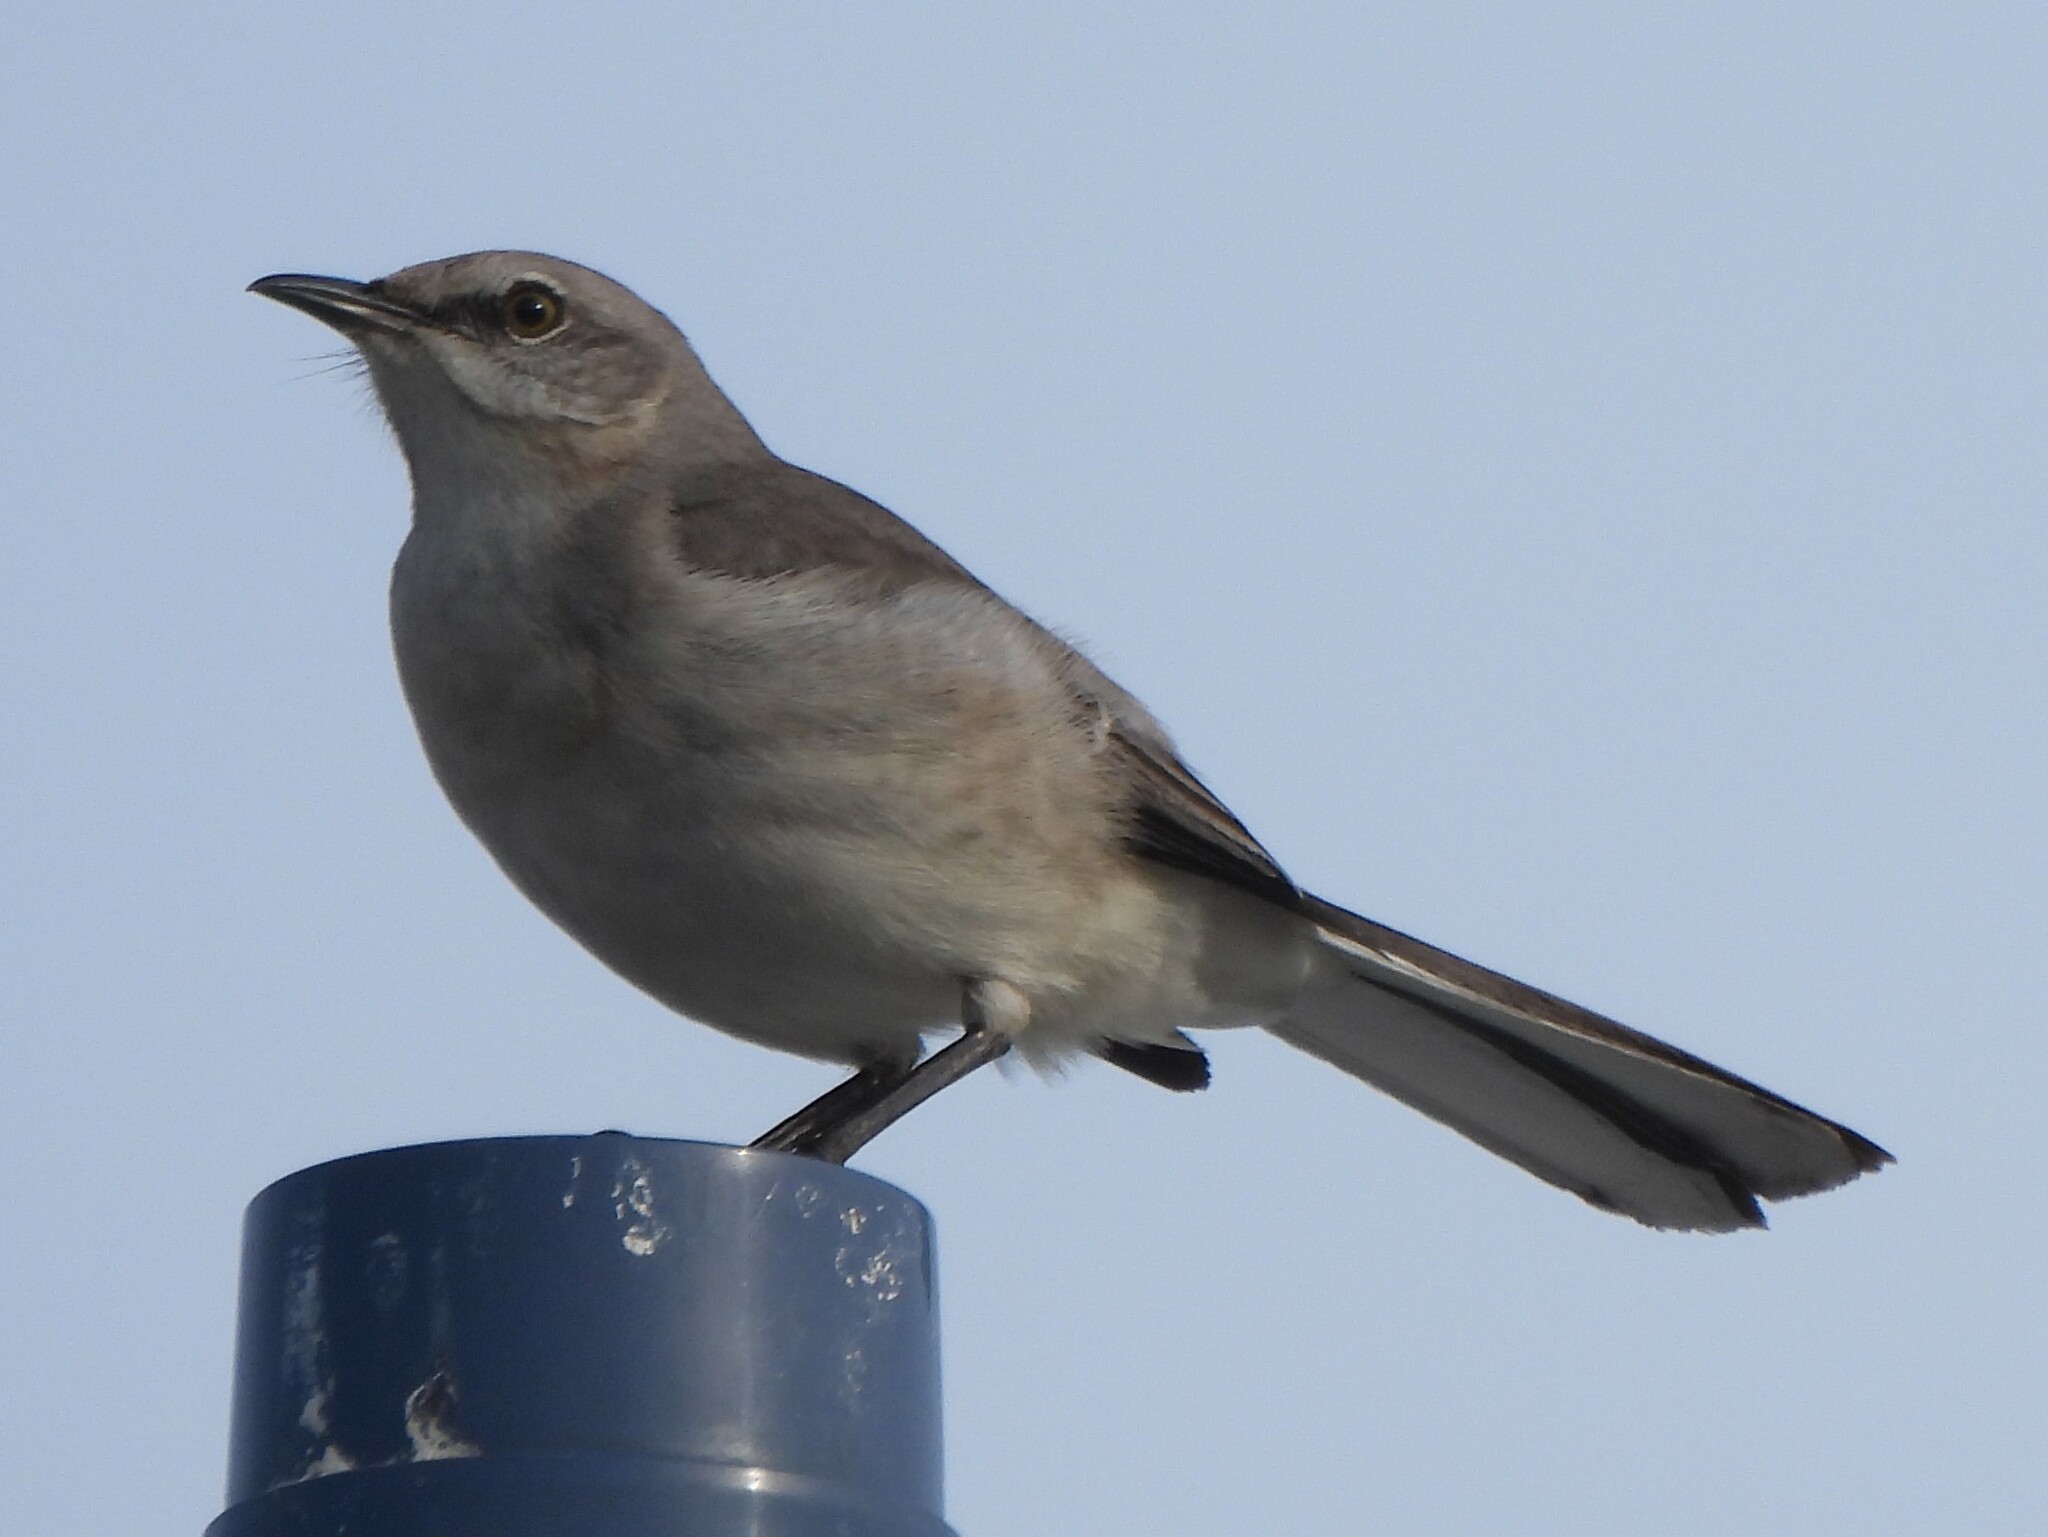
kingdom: Animalia
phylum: Chordata
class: Aves
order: Passeriformes
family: Mimidae
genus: Mimus
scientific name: Mimus polyglottos
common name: Northern mockingbird
